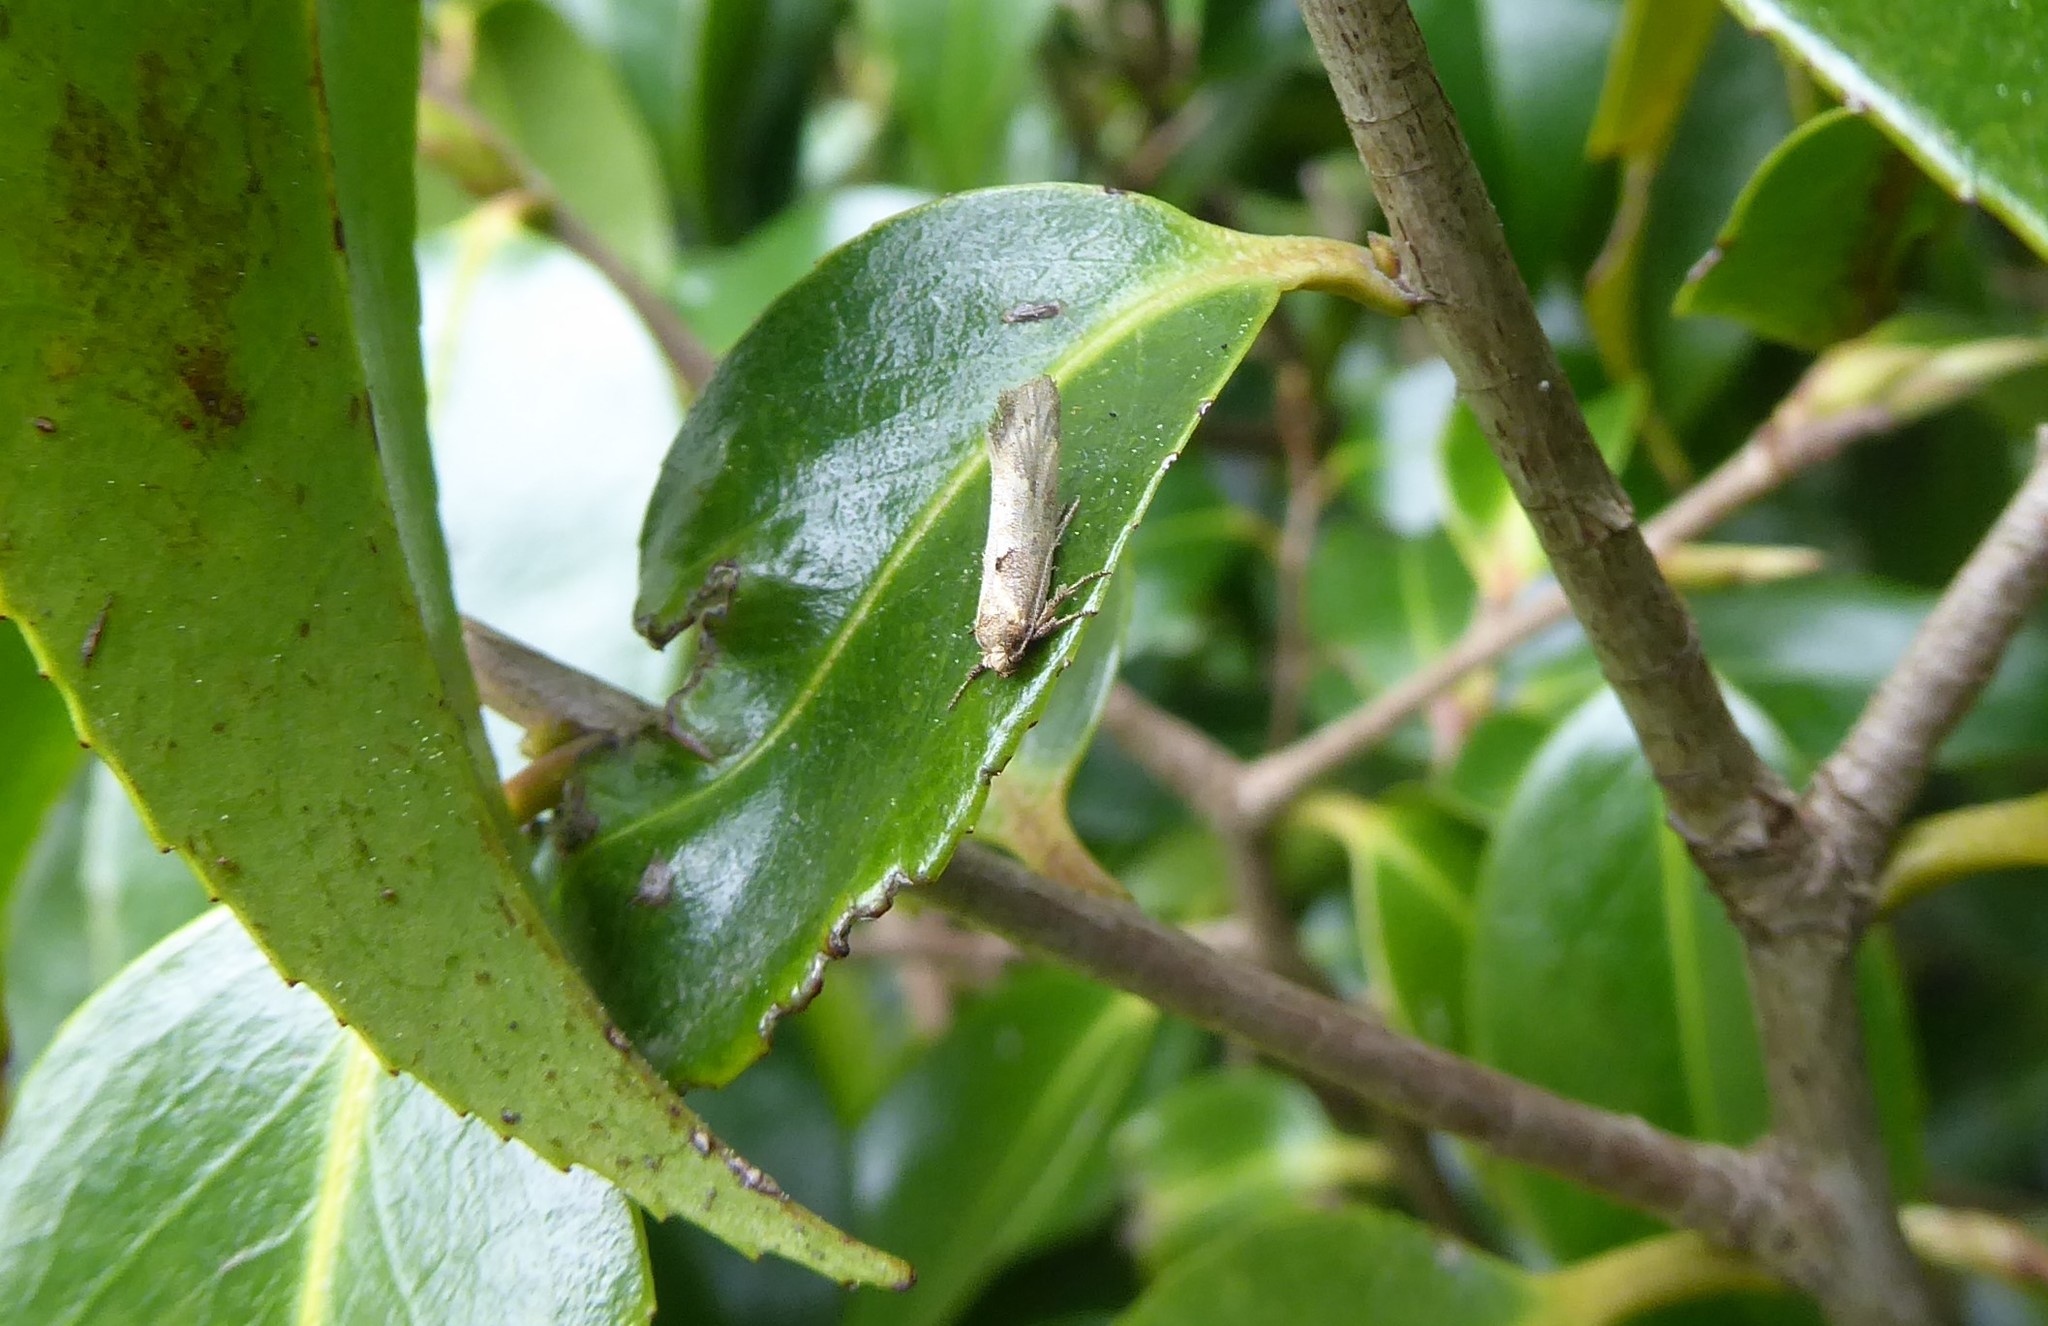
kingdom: Animalia
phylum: Arthropoda
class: Insecta
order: Lepidoptera
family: Oecophoridae
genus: Tingena
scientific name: Tingena brachyacma
